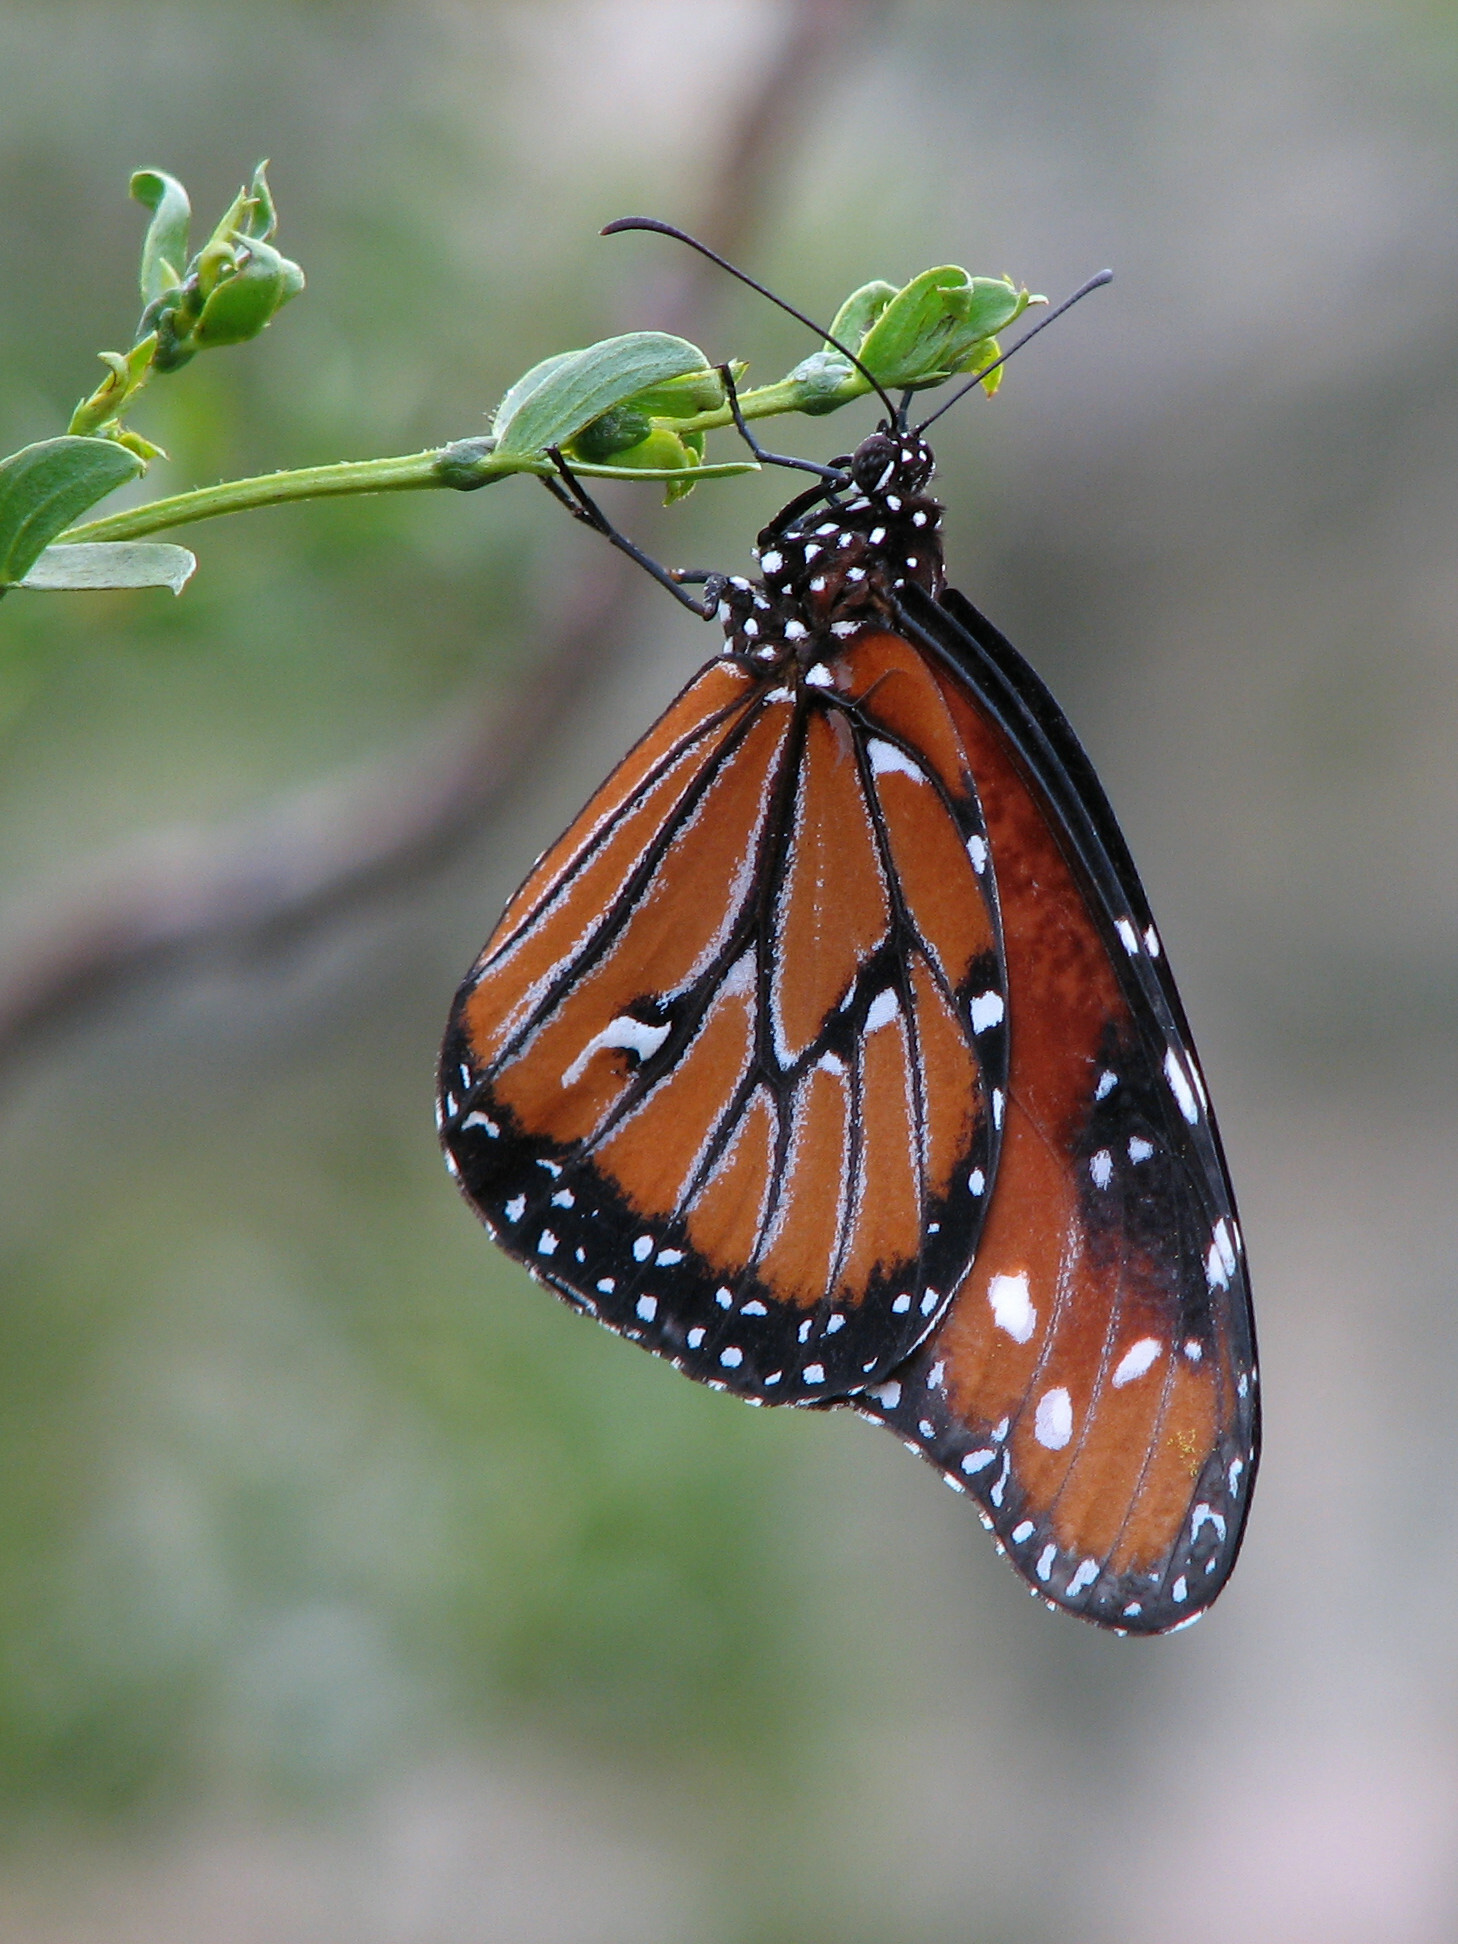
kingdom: Animalia
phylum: Arthropoda
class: Insecta
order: Lepidoptera
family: Nymphalidae
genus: Danaus
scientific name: Danaus gilippus
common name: Queen
